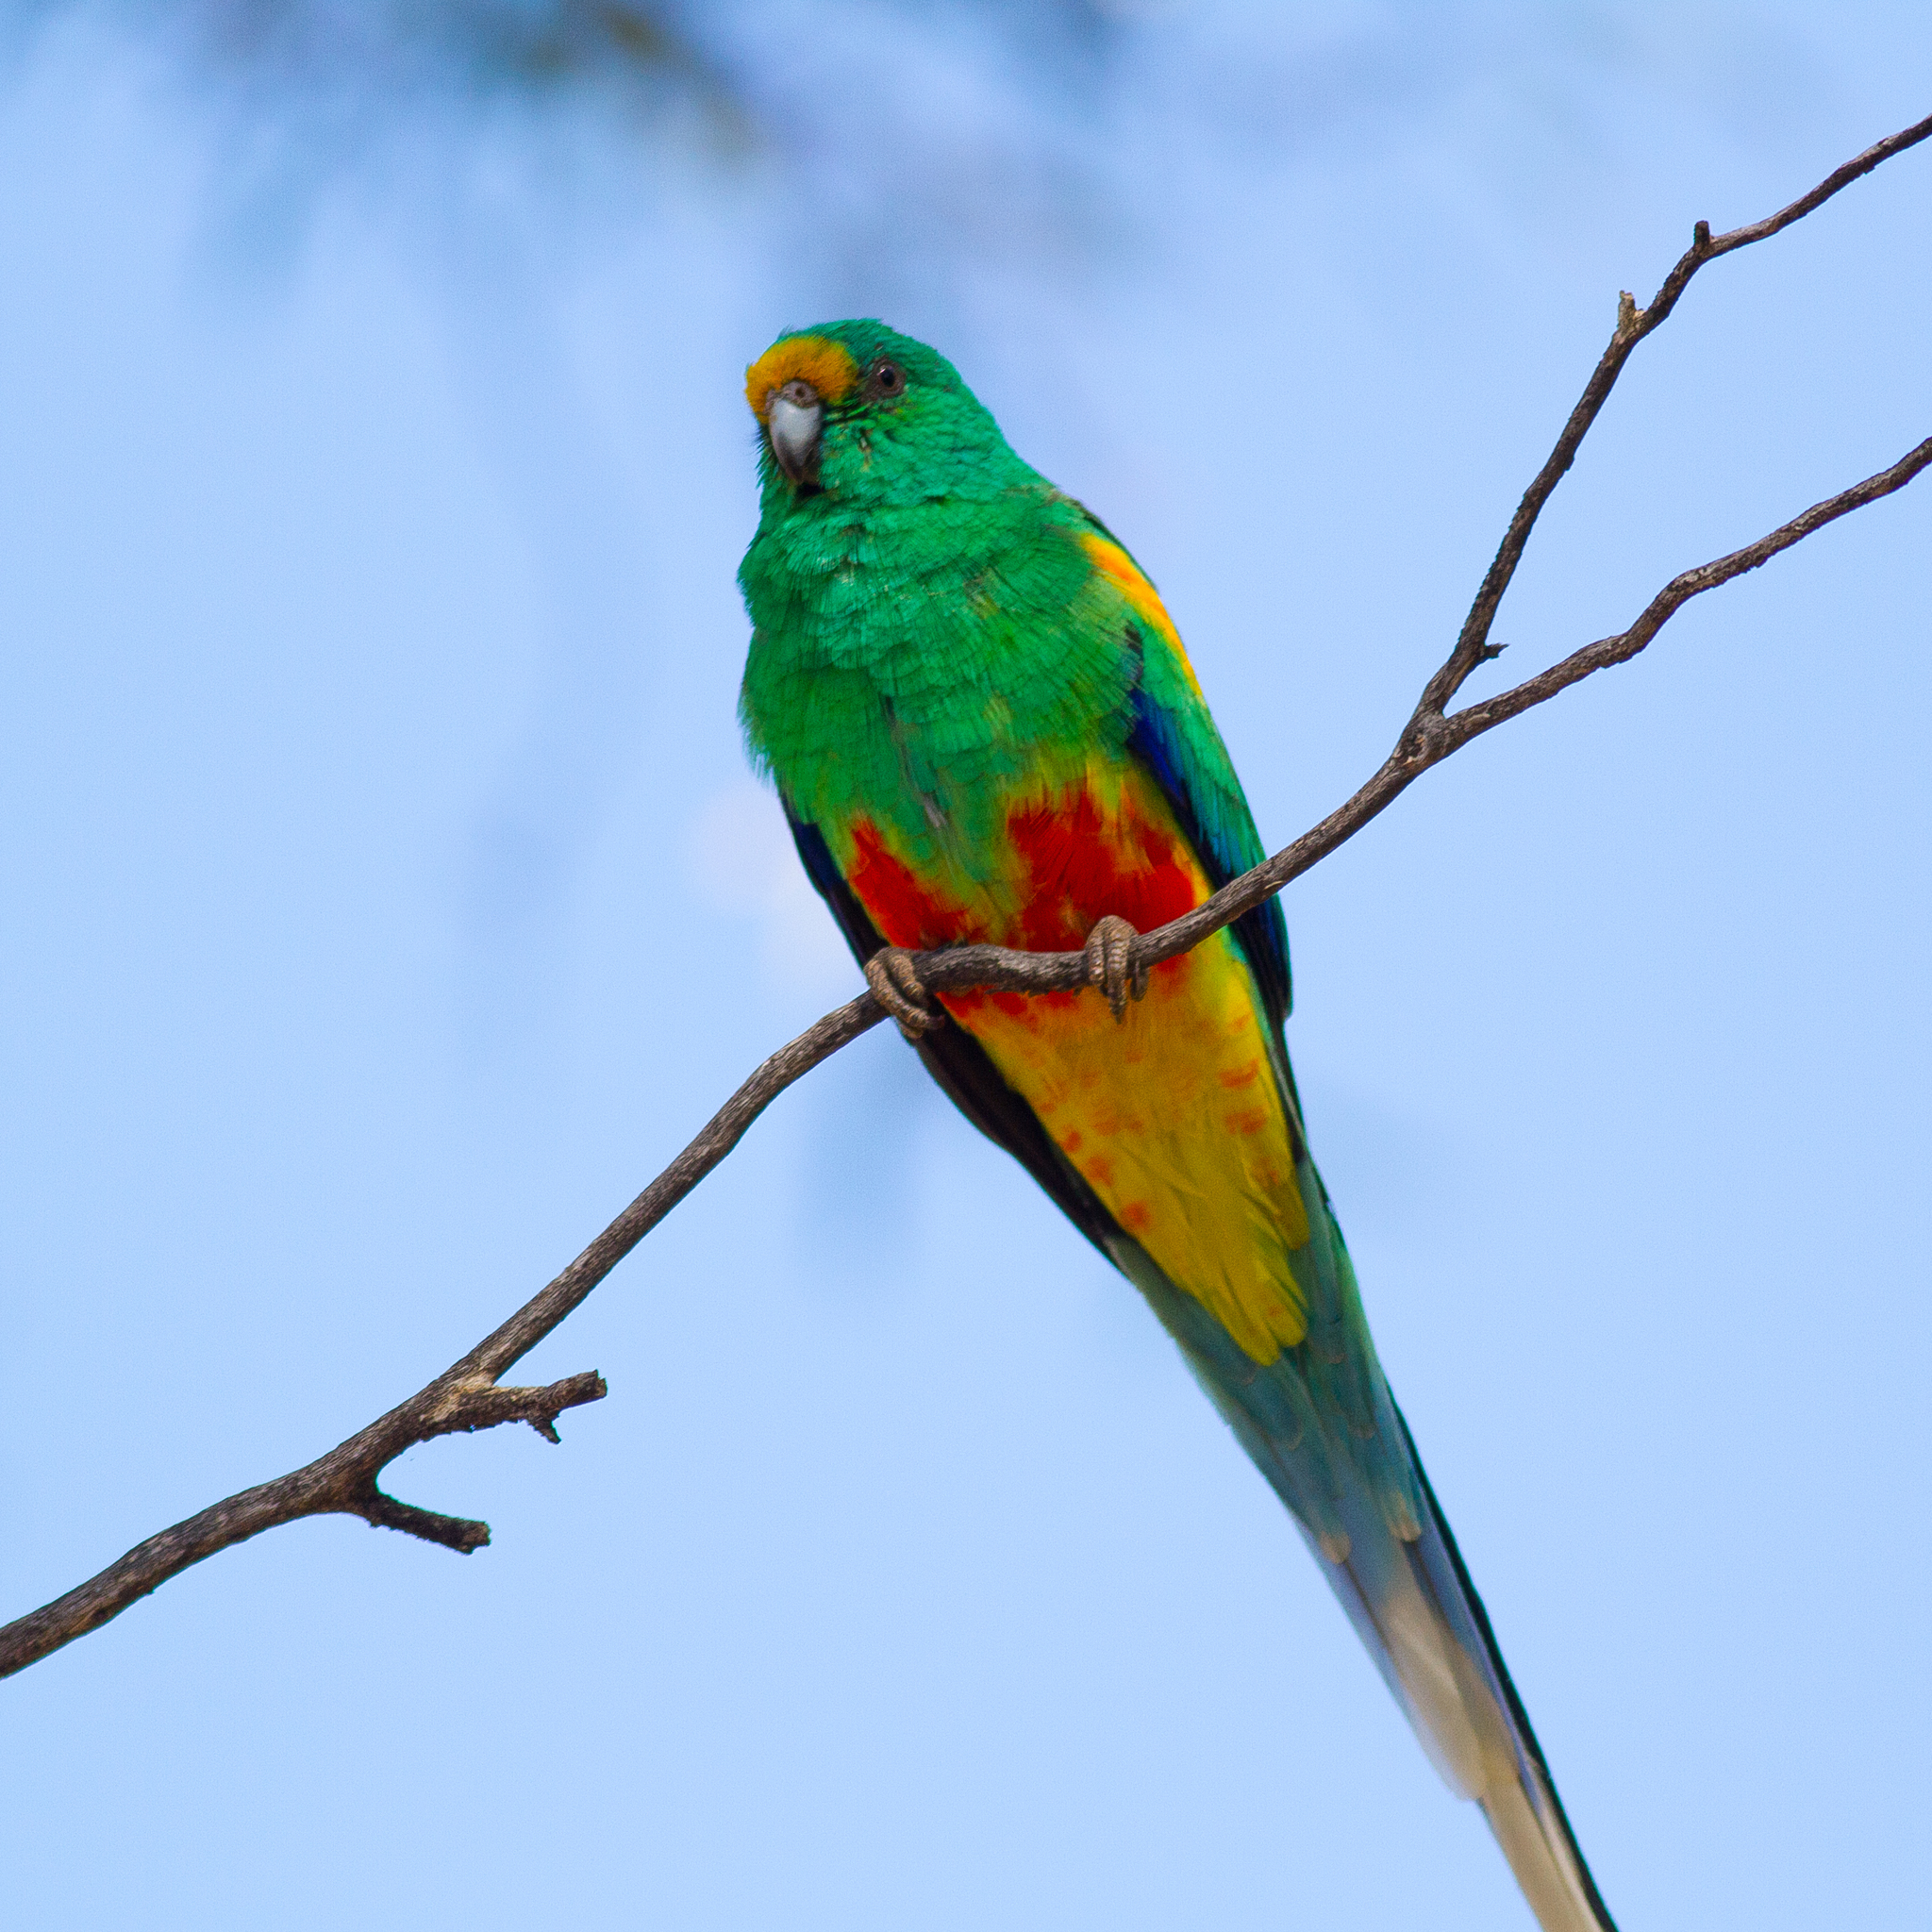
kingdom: Animalia
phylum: Chordata
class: Aves
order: Psittaciformes
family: Psittaculidae
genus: Psephotellus
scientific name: Psephotellus varius
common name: Mulga parrot
